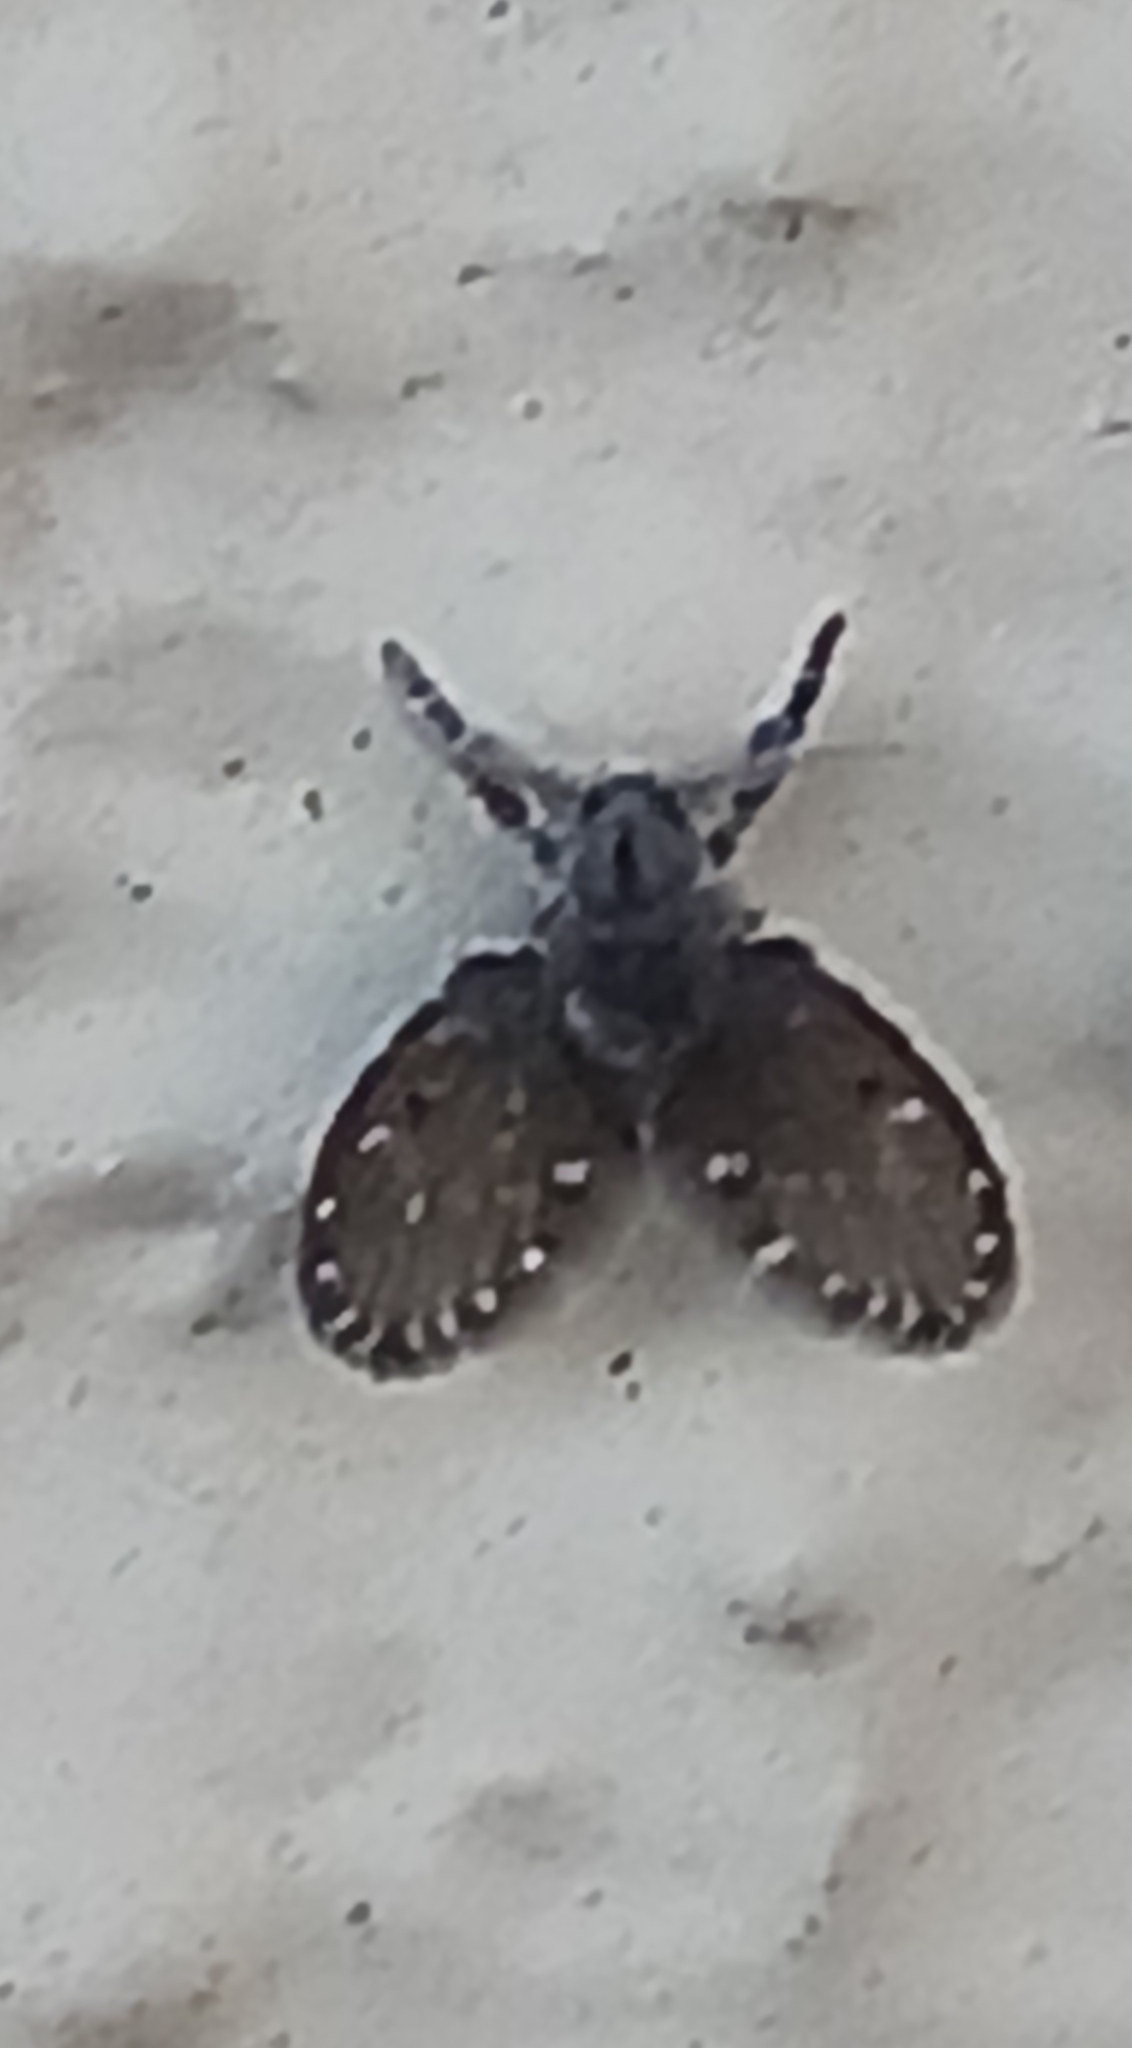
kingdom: Animalia
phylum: Arthropoda
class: Insecta
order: Diptera
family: Psychodidae
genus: Clogmia
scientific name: Clogmia albipunctatus
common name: White-spotted moth fly
